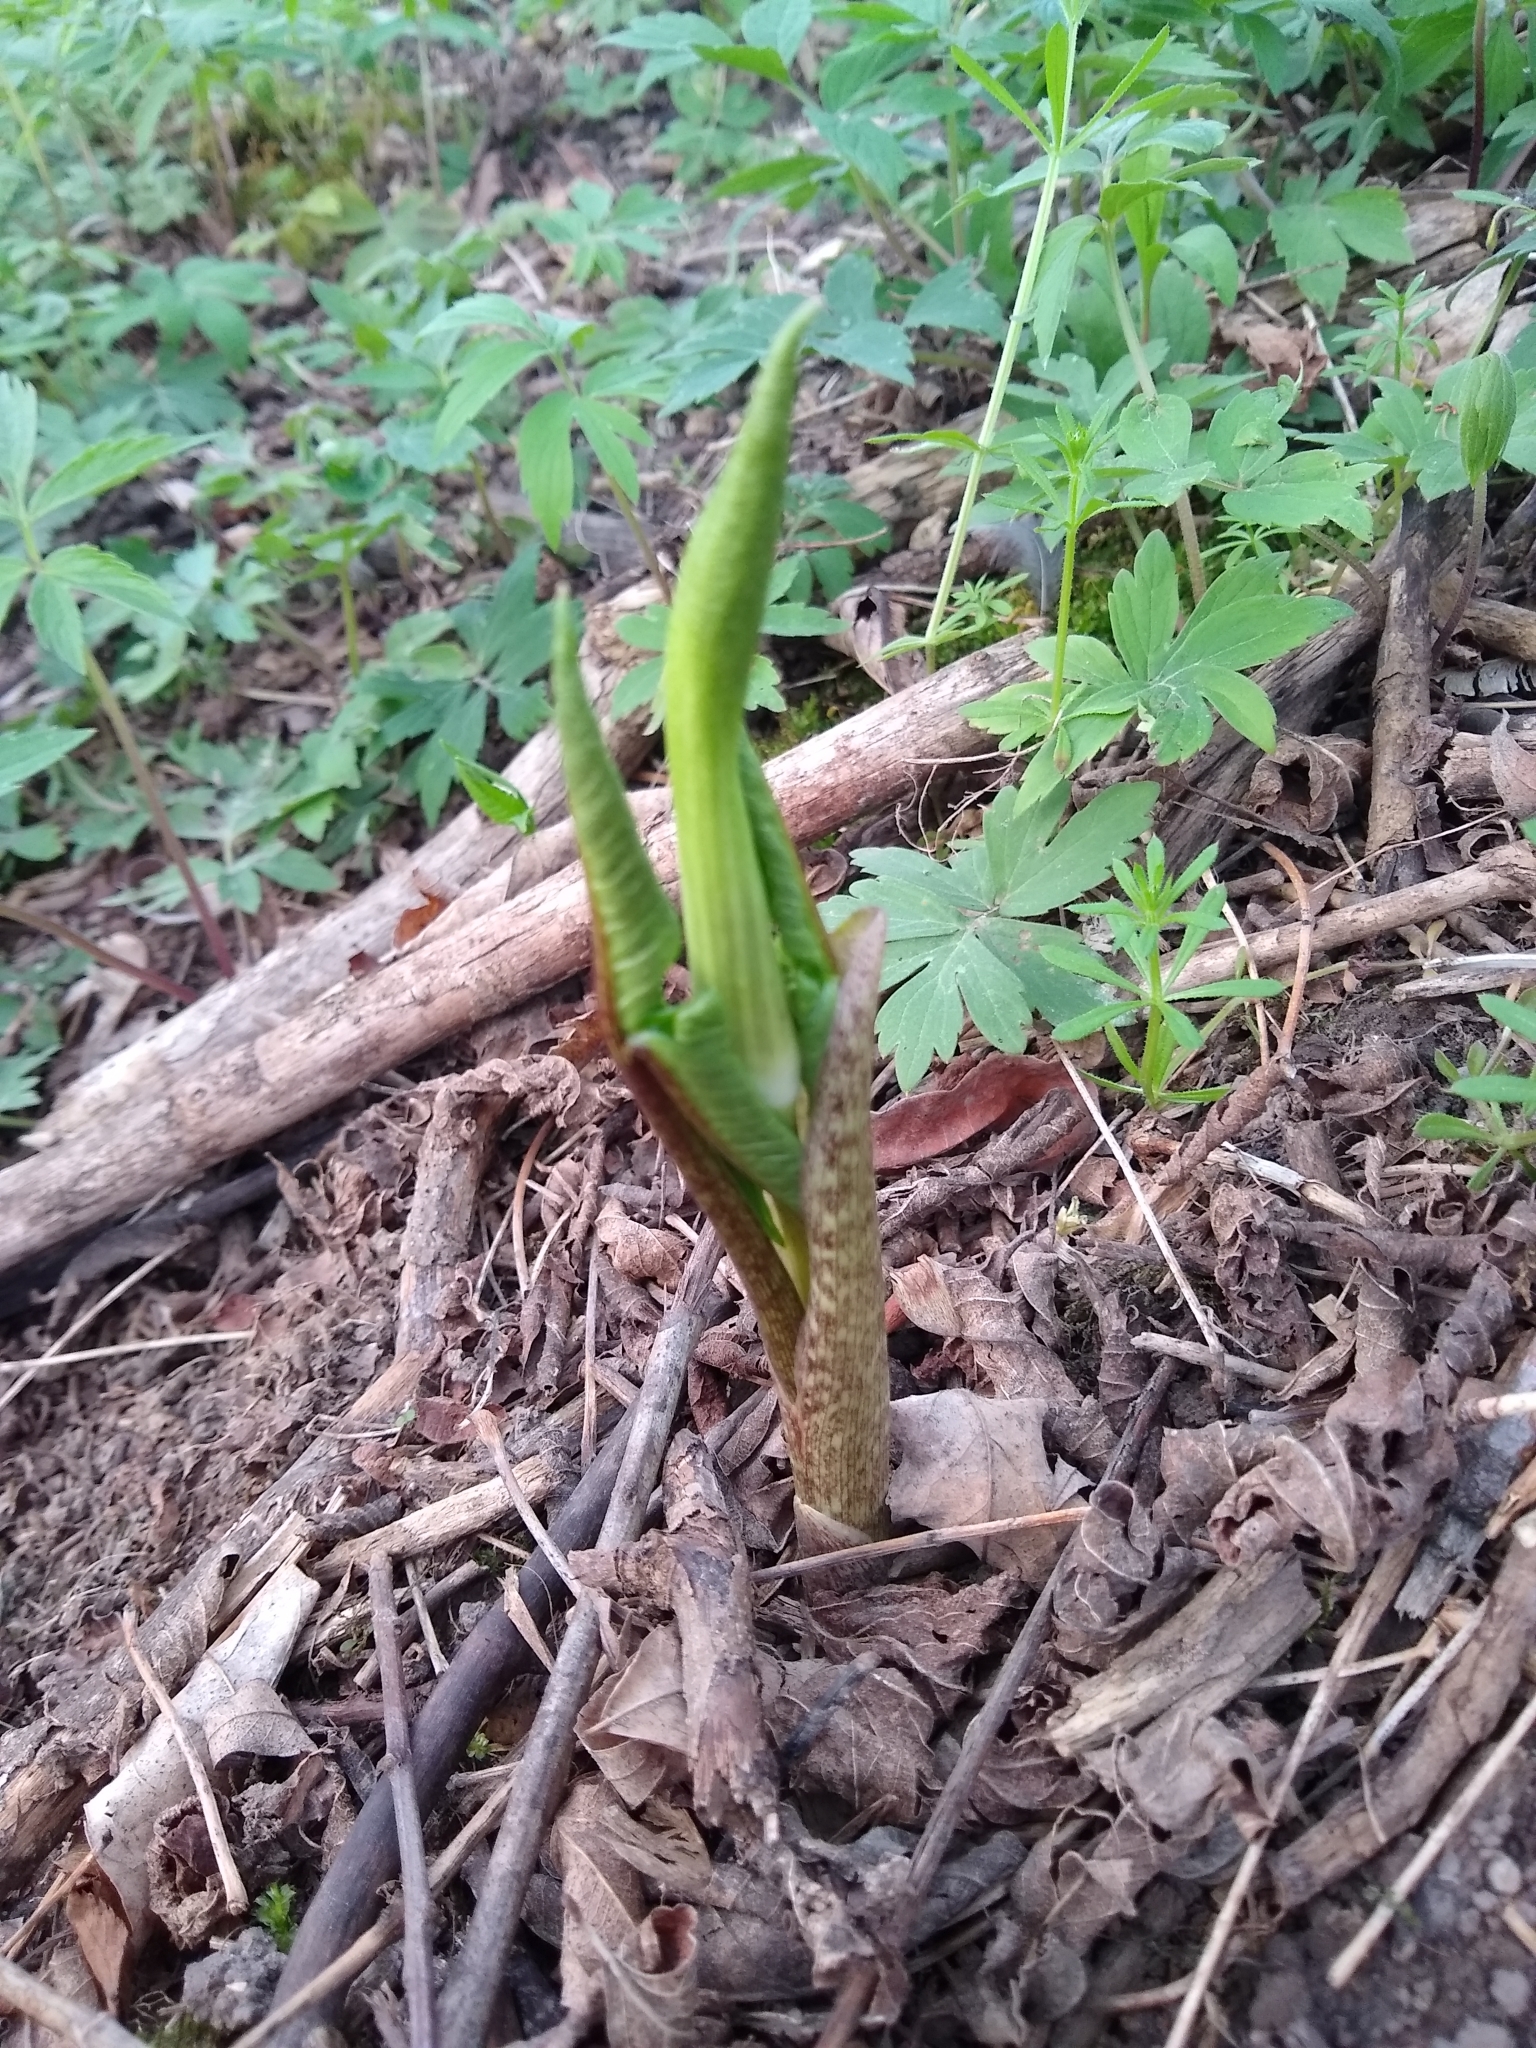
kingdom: Plantae
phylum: Tracheophyta
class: Liliopsida
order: Alismatales
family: Araceae
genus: Arisaema
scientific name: Arisaema triphyllum
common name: Jack-in-the-pulpit
